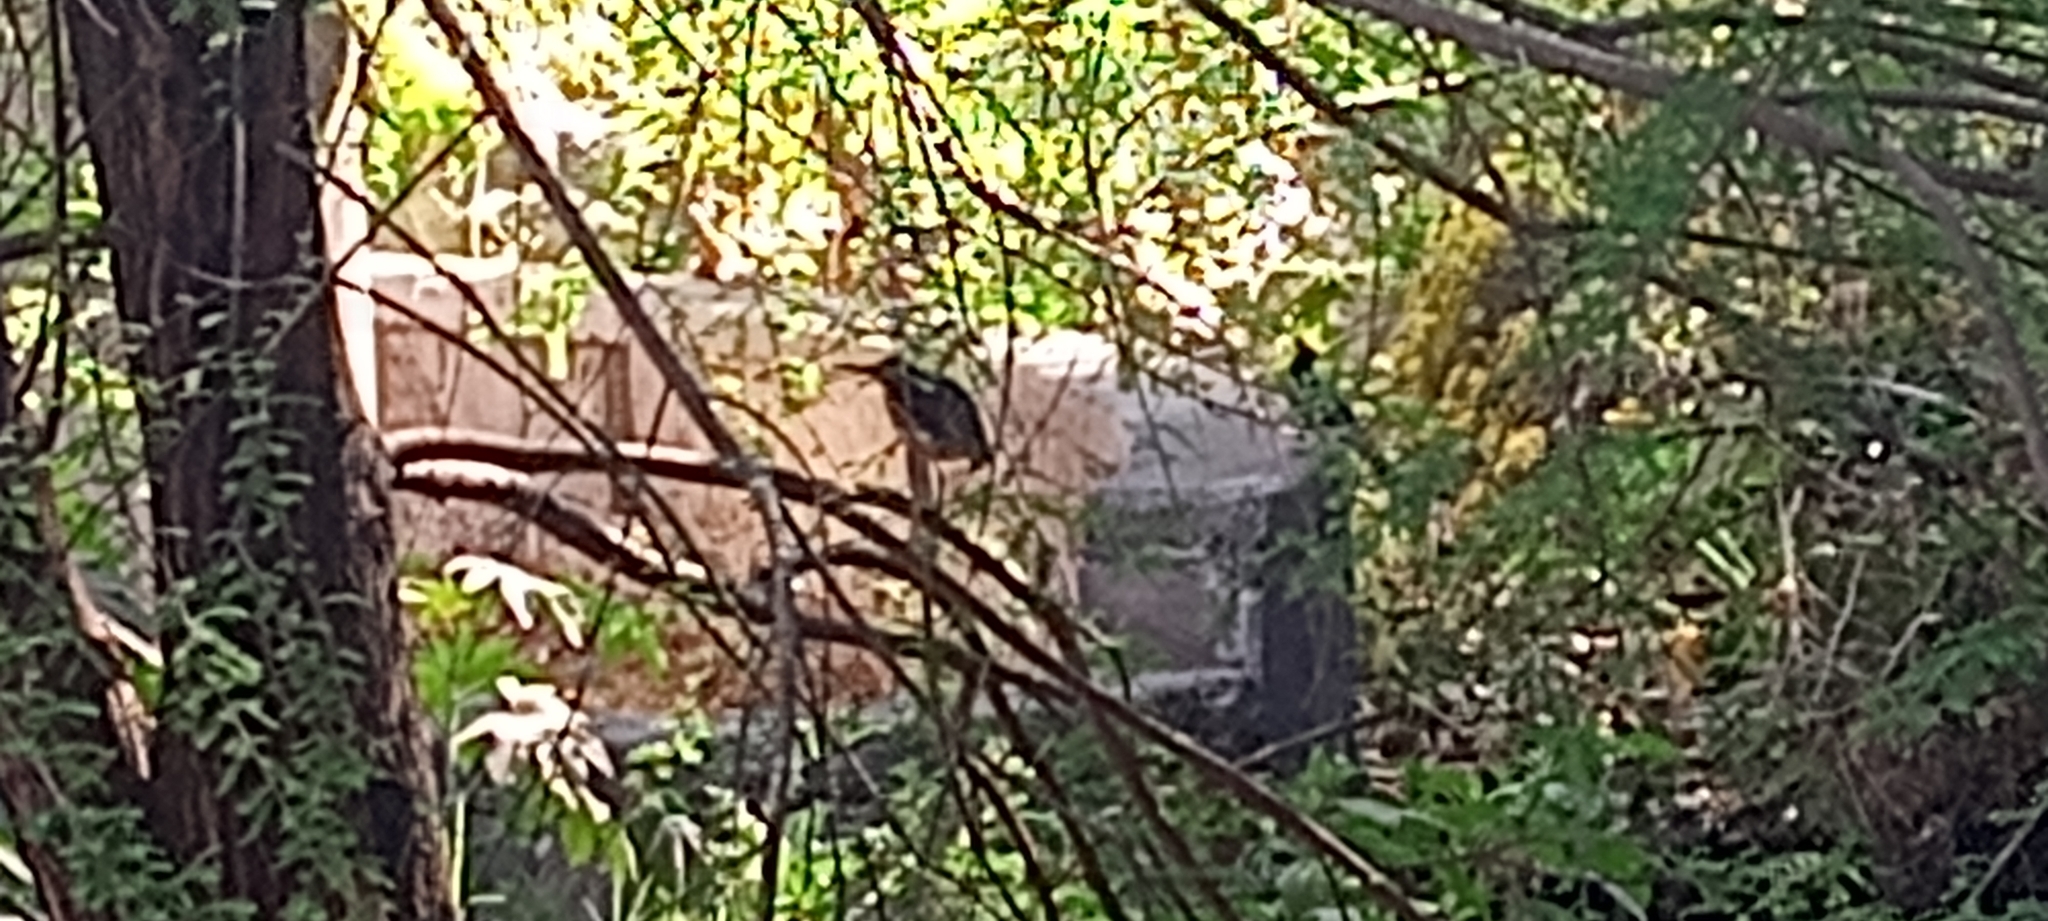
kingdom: Animalia
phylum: Chordata
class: Aves
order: Pelecaniformes
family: Ardeidae
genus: Butorides
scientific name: Butorides virescens
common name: Green heron
